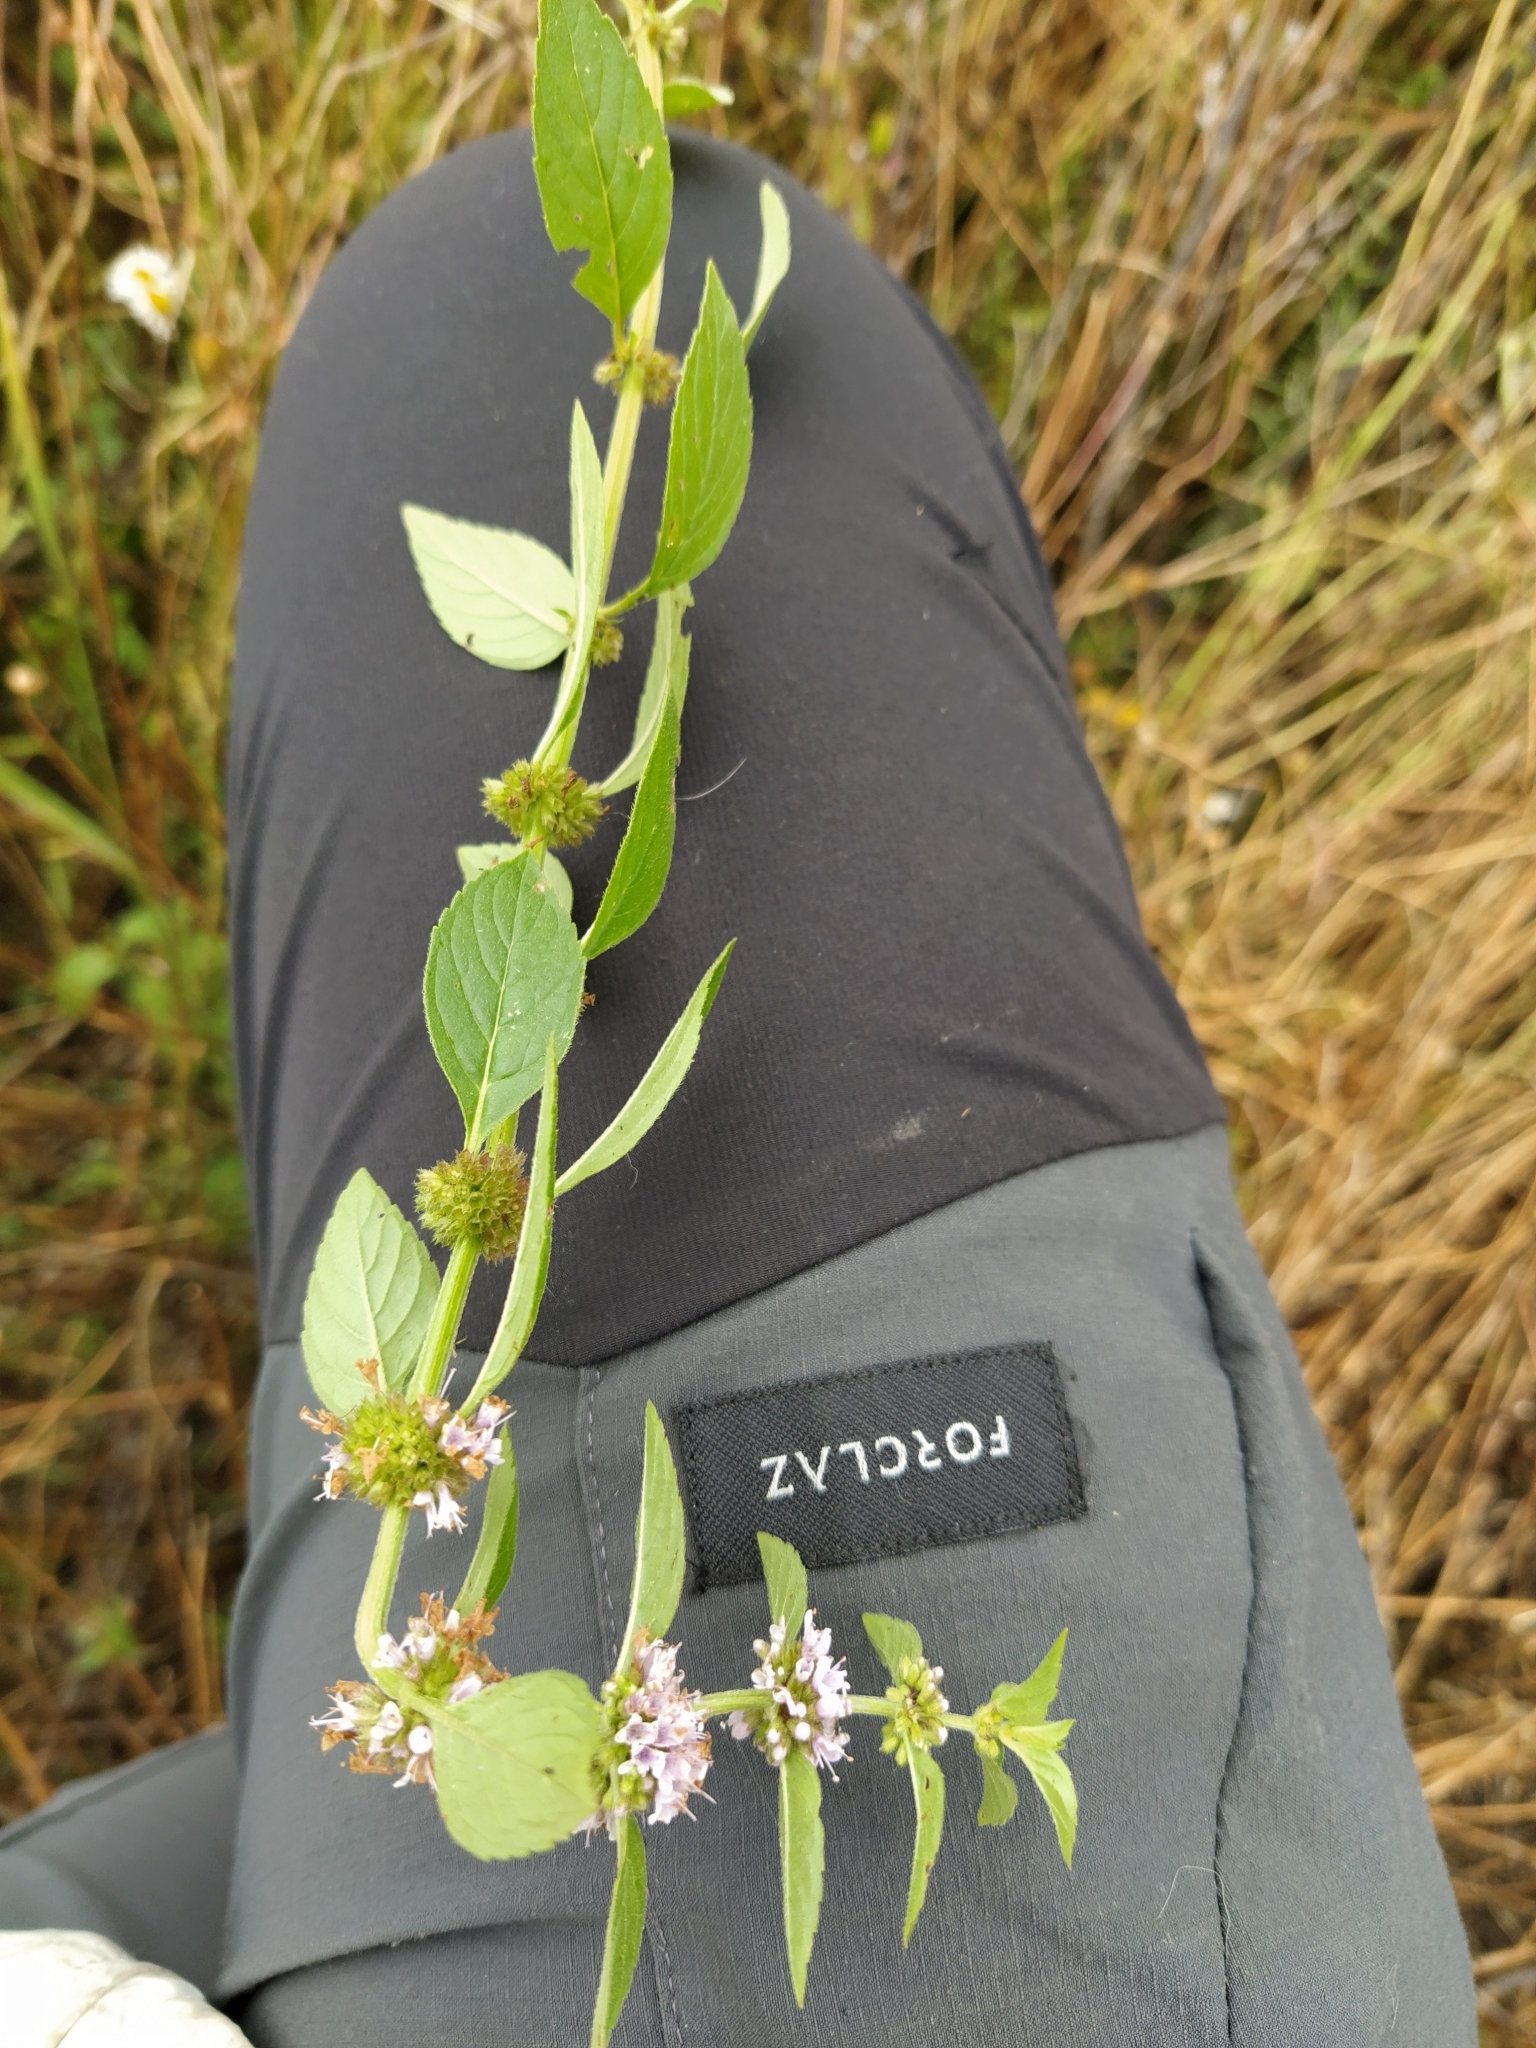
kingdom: Plantae
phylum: Tracheophyta
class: Magnoliopsida
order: Lamiales
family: Lamiaceae
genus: Mentha
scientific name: Mentha arvensis
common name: Corn mint
